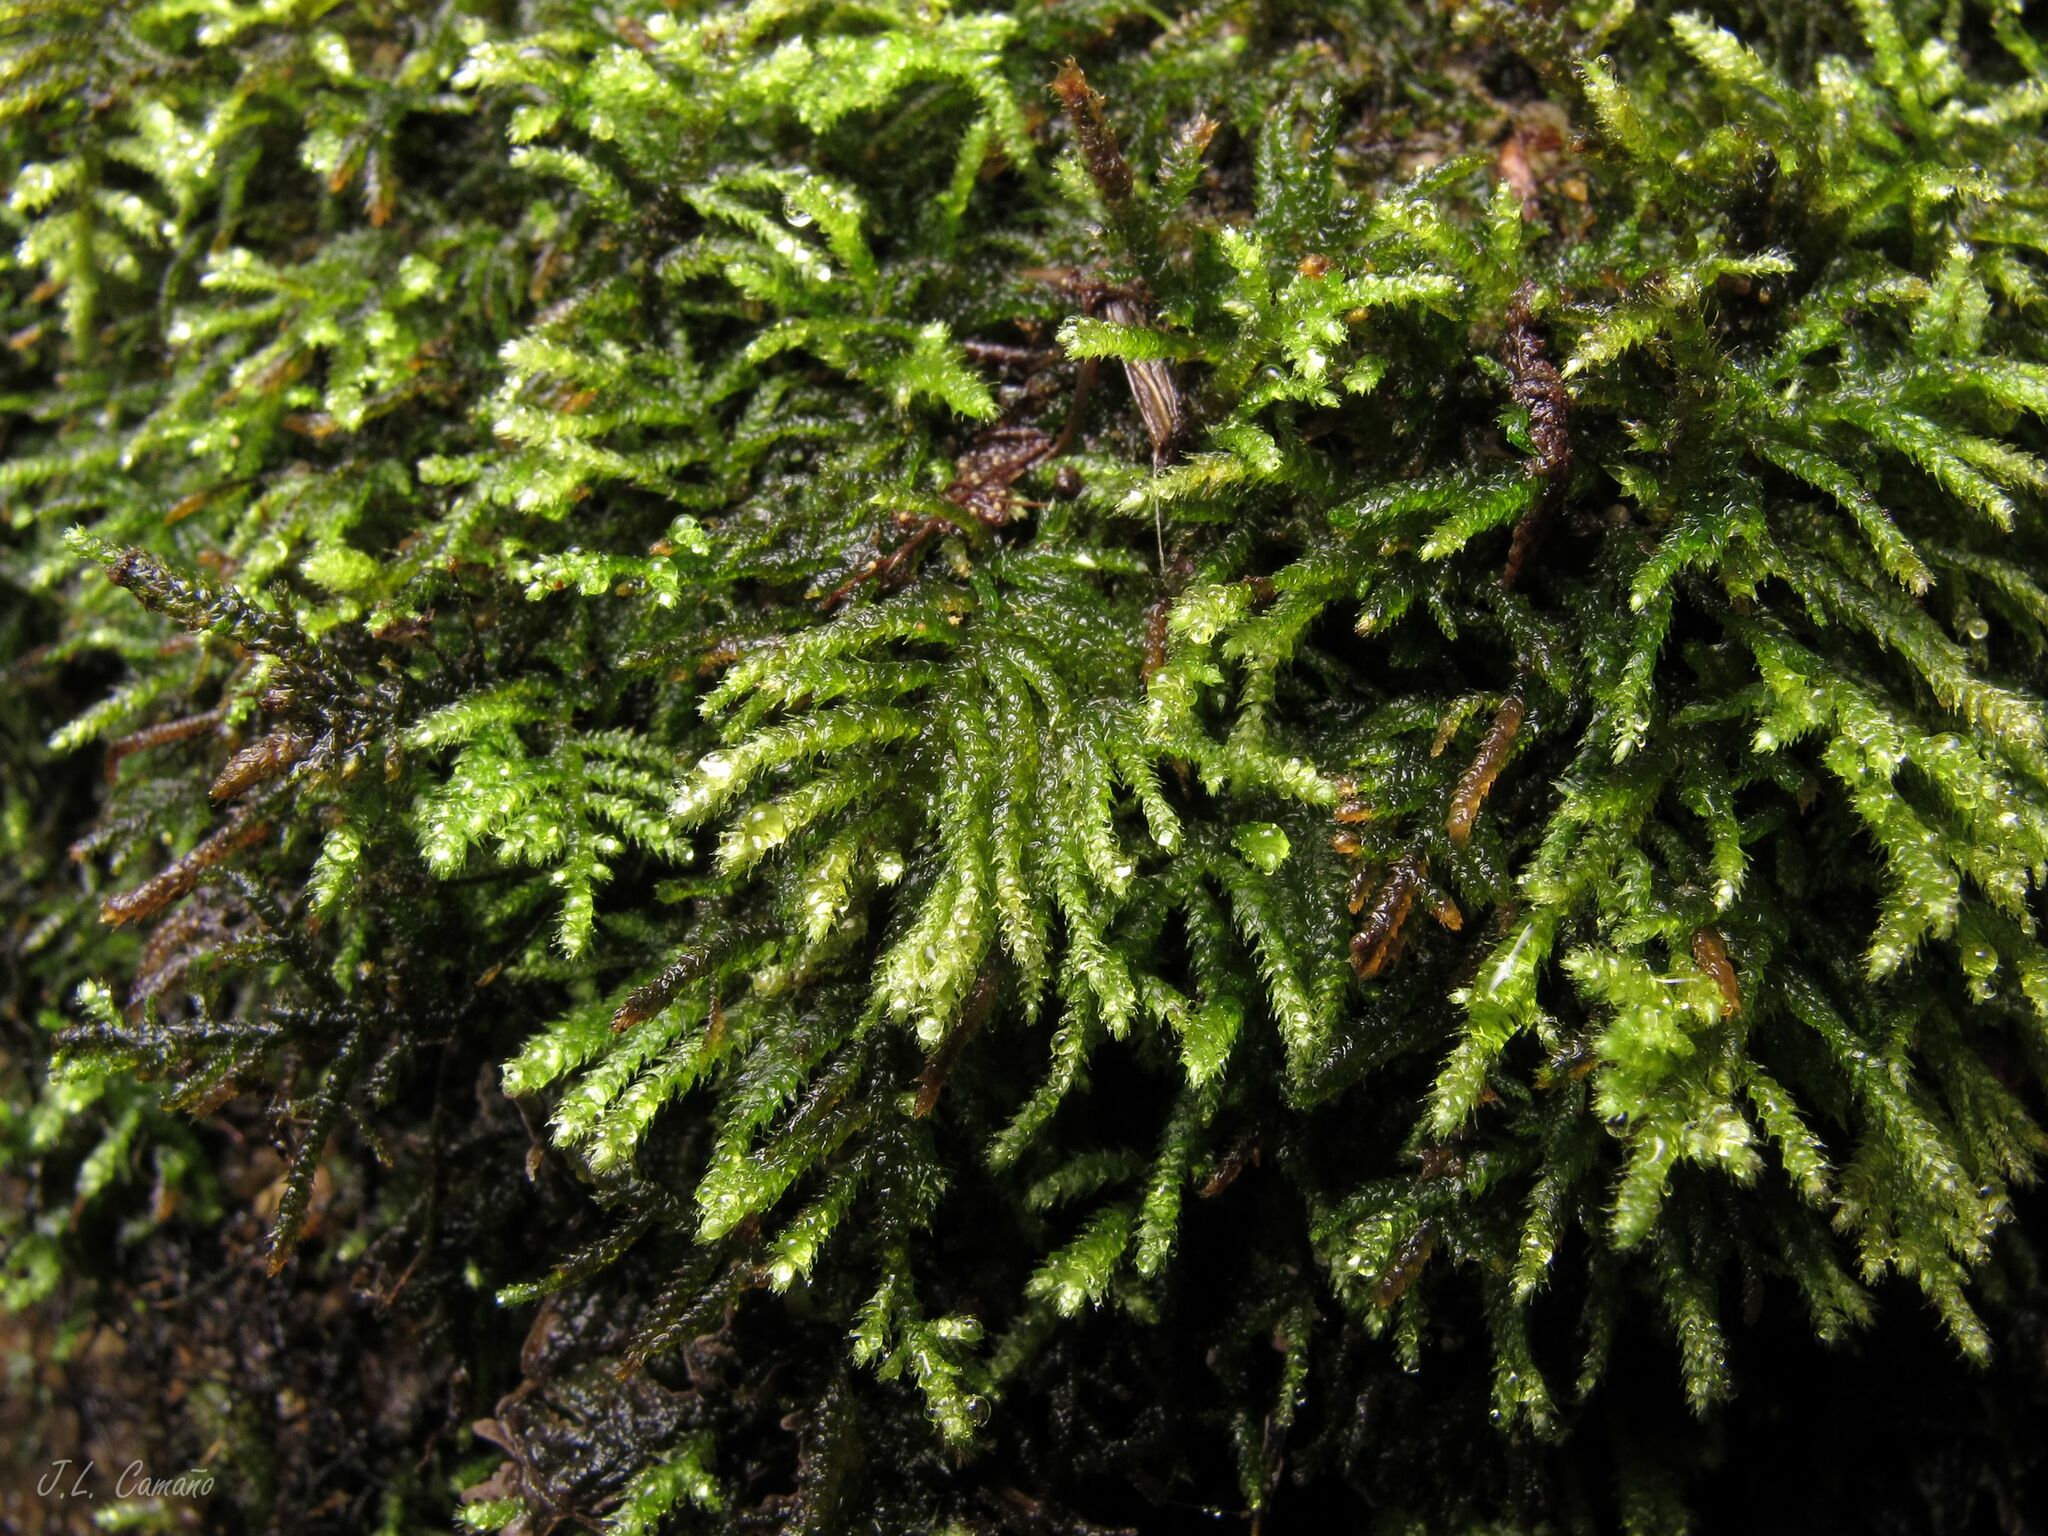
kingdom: Plantae
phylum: Bryophyta
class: Bryopsida
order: Hypnales
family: Myuriaceae
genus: Hyocomium
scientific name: Hyocomium armoricum
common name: Flagellate feather-moss
